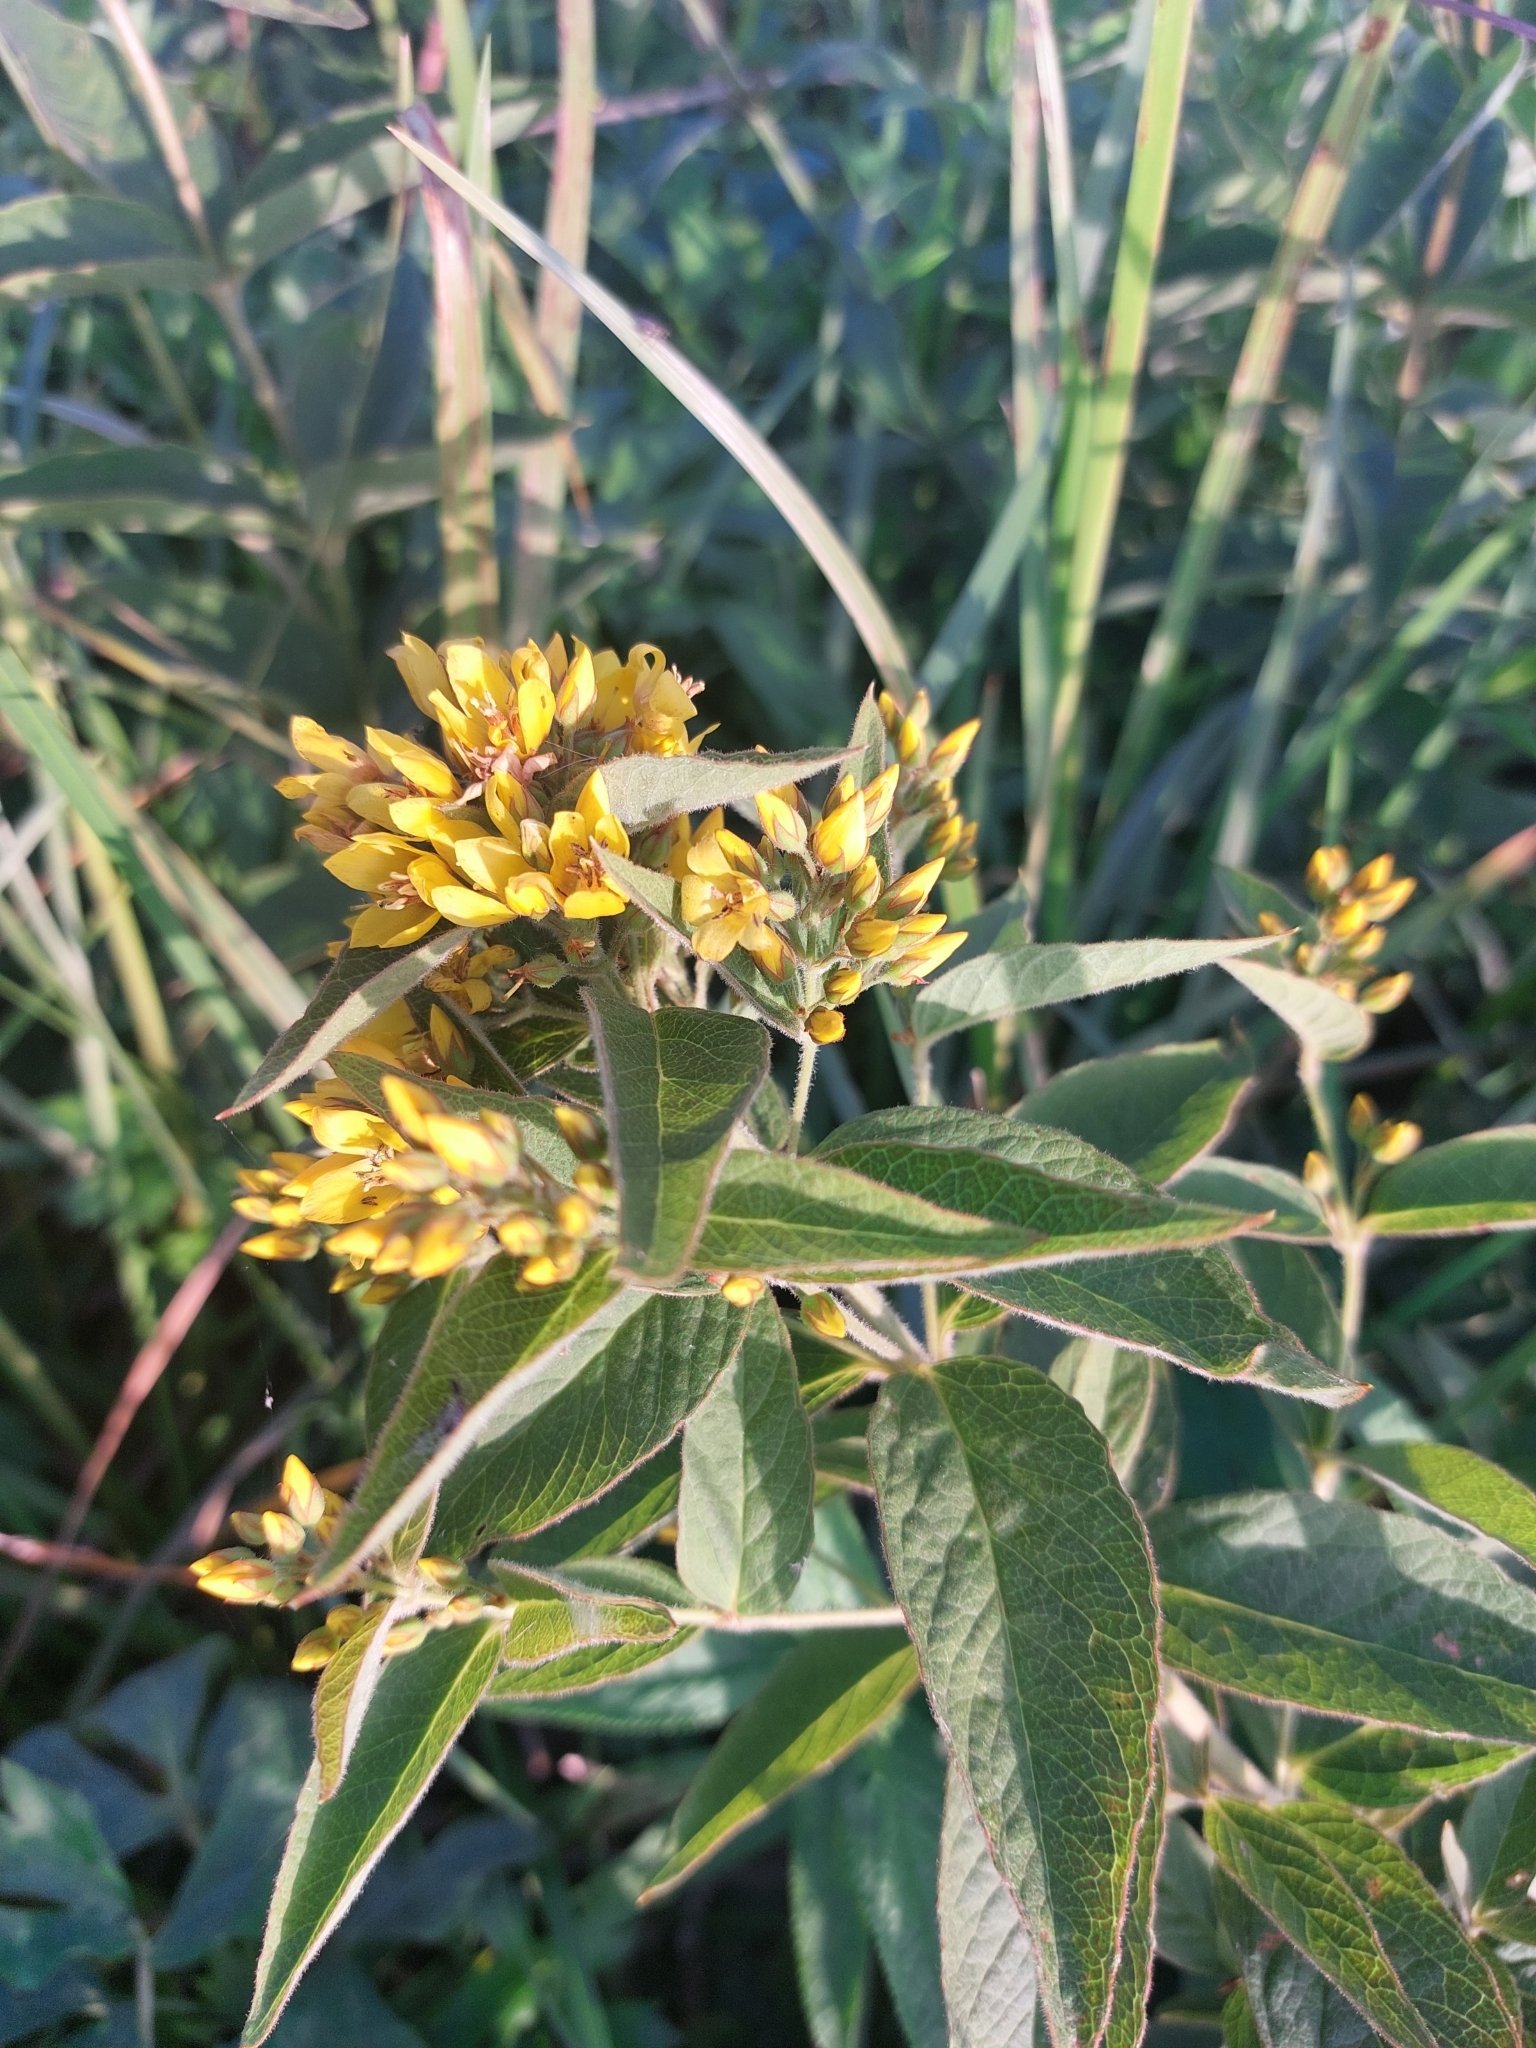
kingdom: Plantae
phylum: Tracheophyta
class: Magnoliopsida
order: Ericales
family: Primulaceae
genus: Lysimachia
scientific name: Lysimachia vulgaris
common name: Yellow loosestrife
